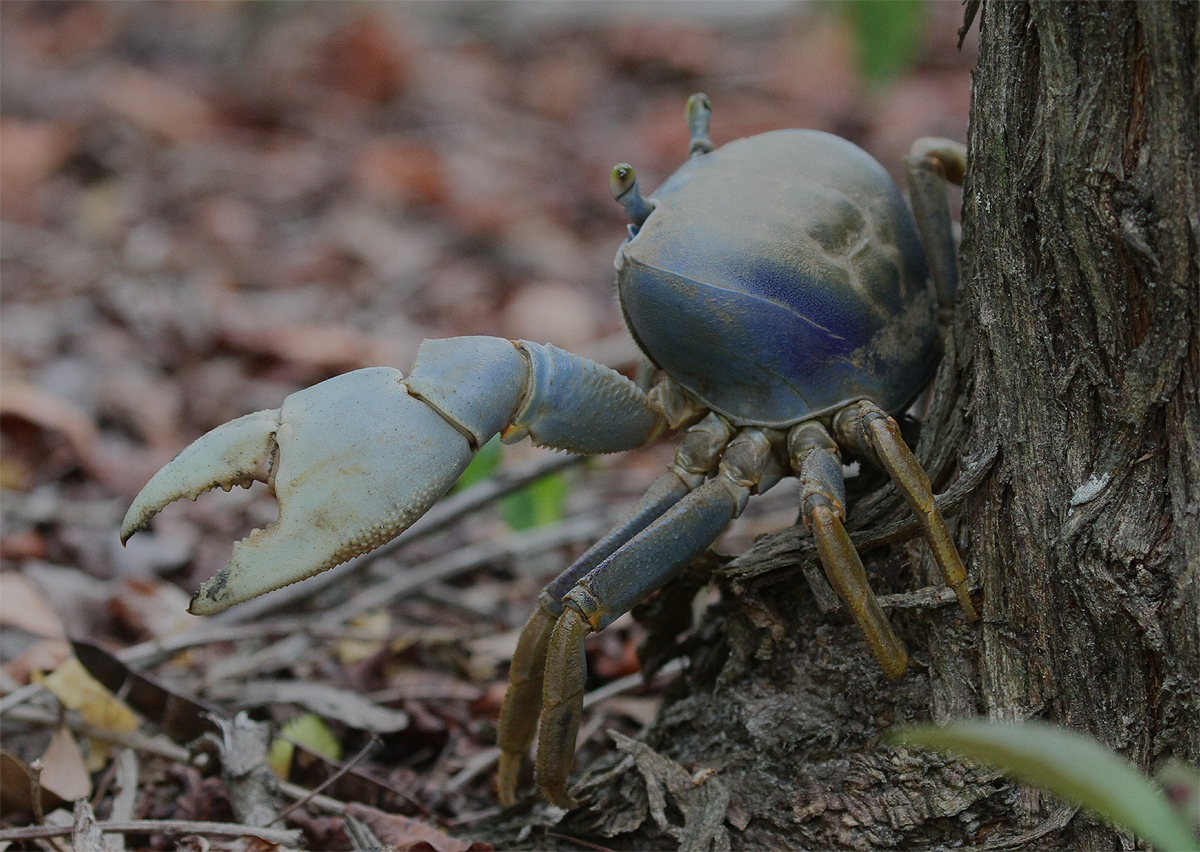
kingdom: Animalia
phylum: Arthropoda
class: Malacostraca
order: Decapoda
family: Gecarcinidae
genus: Cardisoma
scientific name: Cardisoma guanhumi
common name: Great land crab
